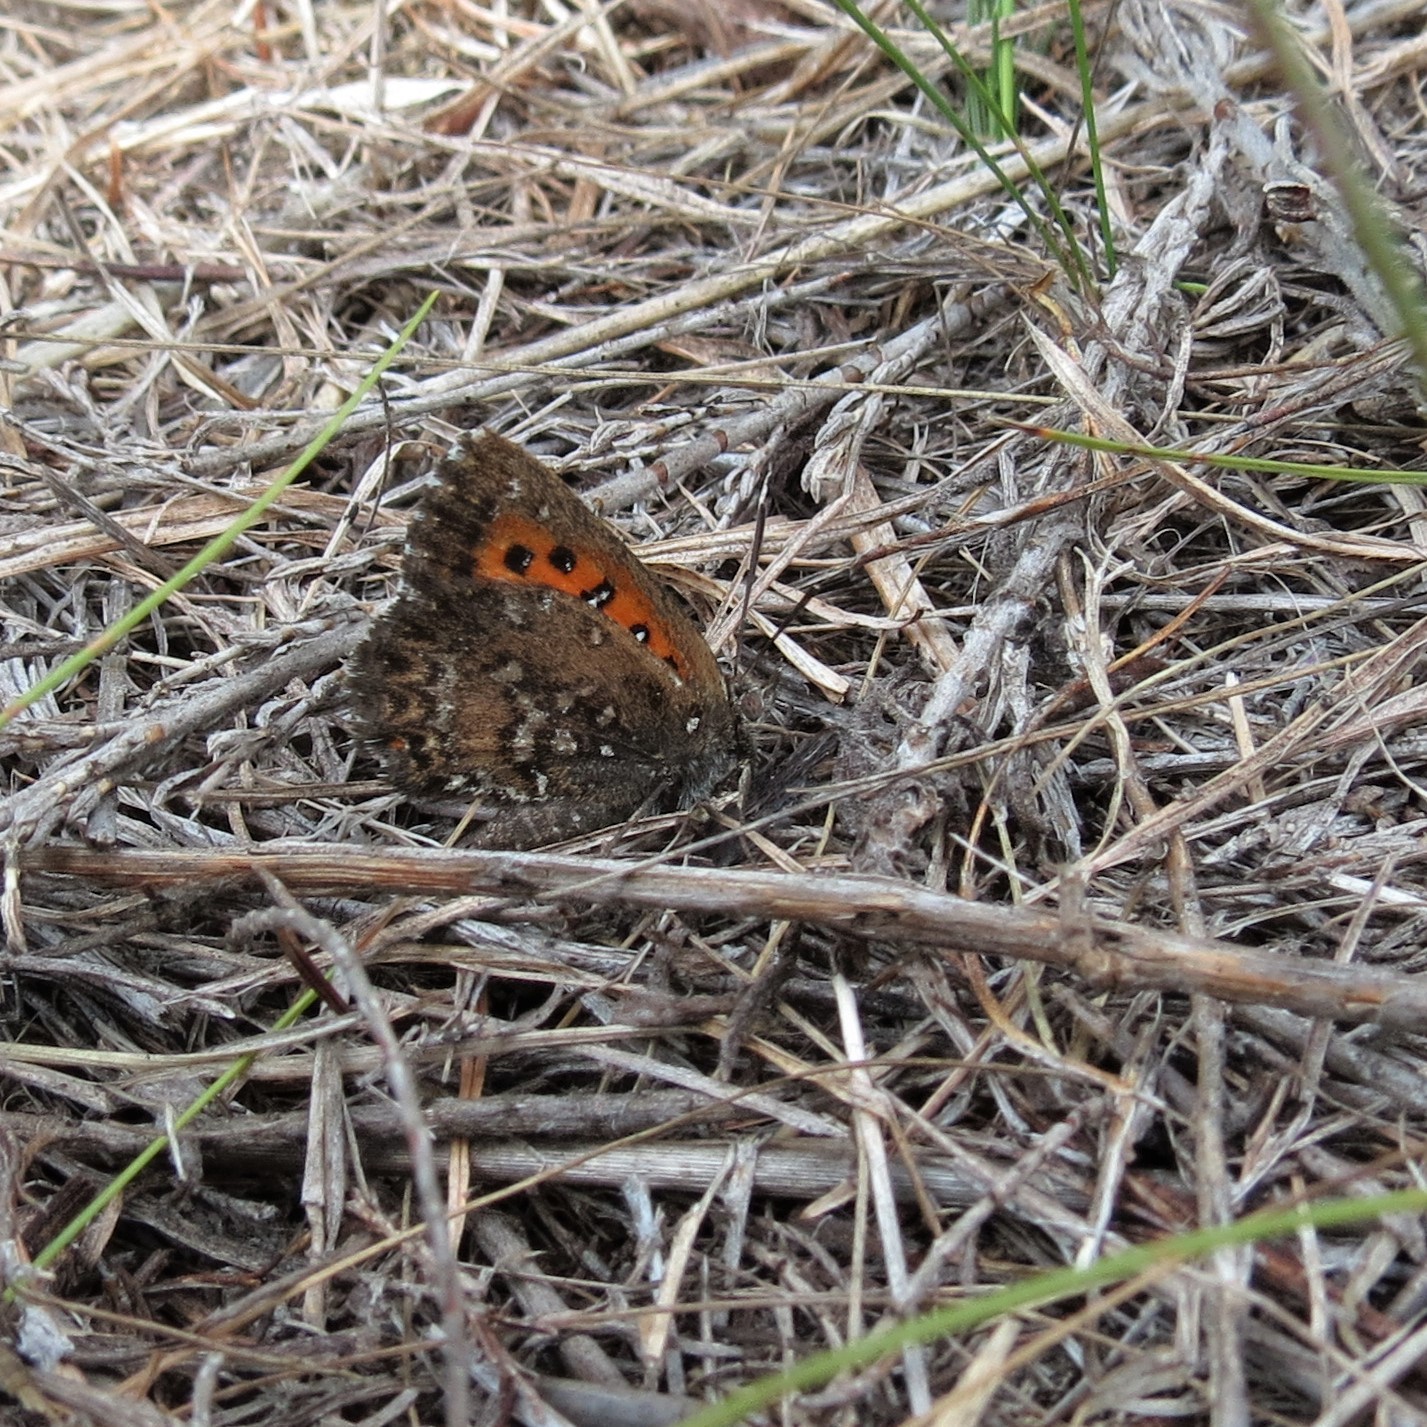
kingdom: Animalia
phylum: Arthropoda
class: Insecta
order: Lepidoptera
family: Lycaenidae
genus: Aloeides
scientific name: Aloeides thyra
